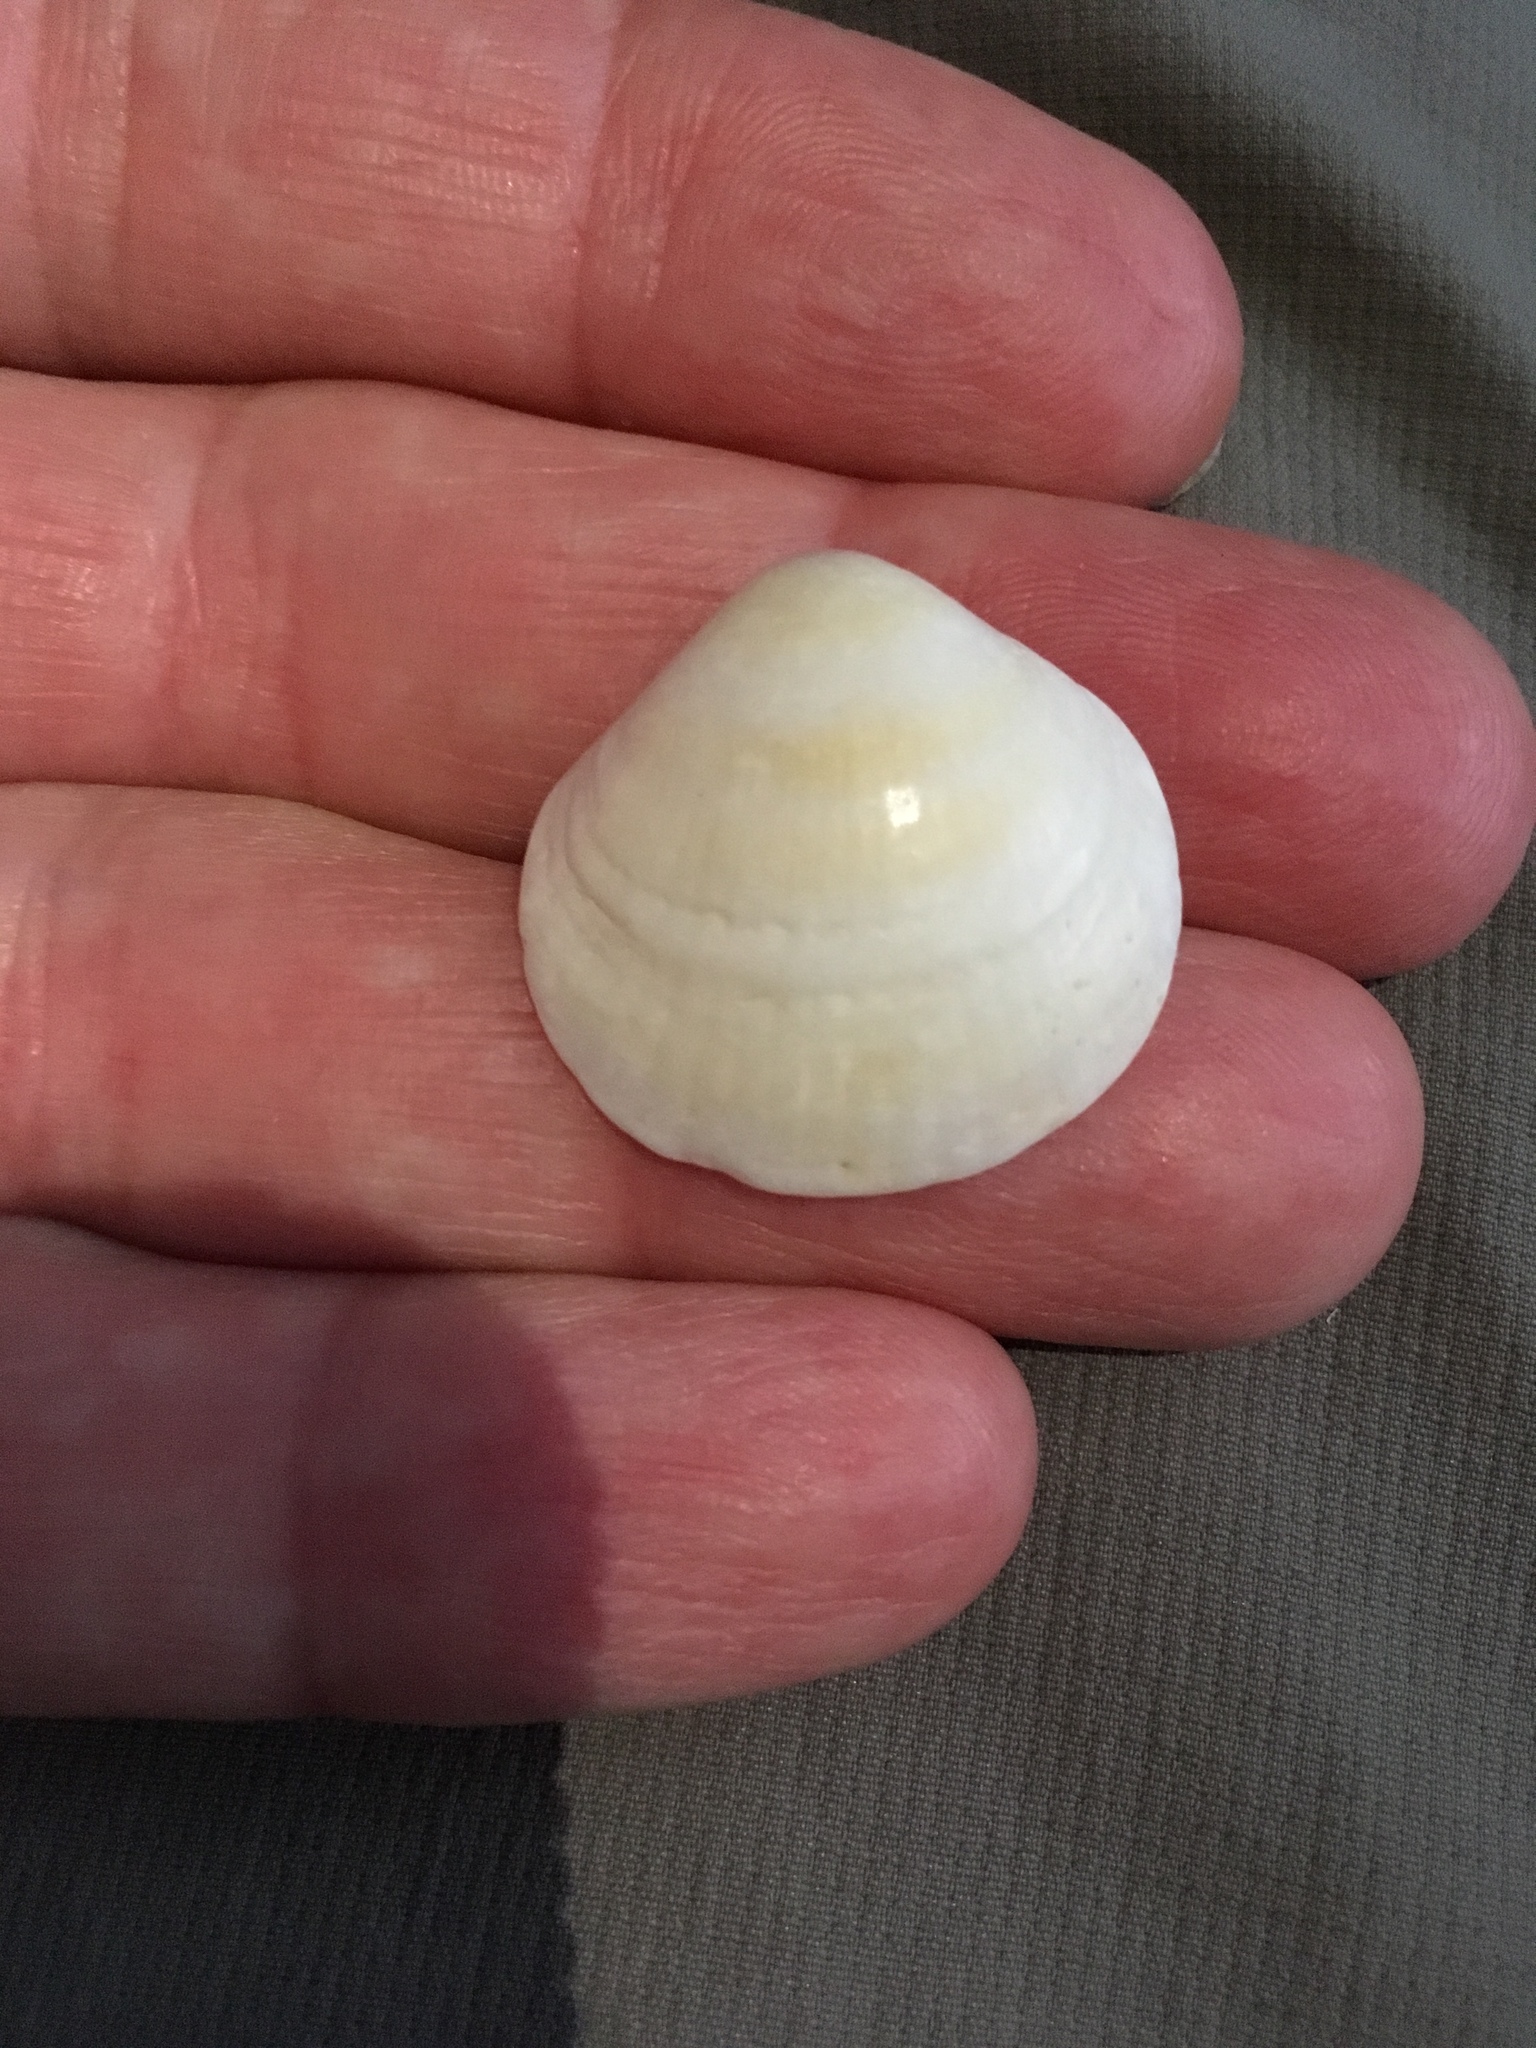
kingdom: Animalia
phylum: Mollusca
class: Bivalvia
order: Arcida
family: Glycymerididae
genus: Glycymeris
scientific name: Glycymeris spectralis
